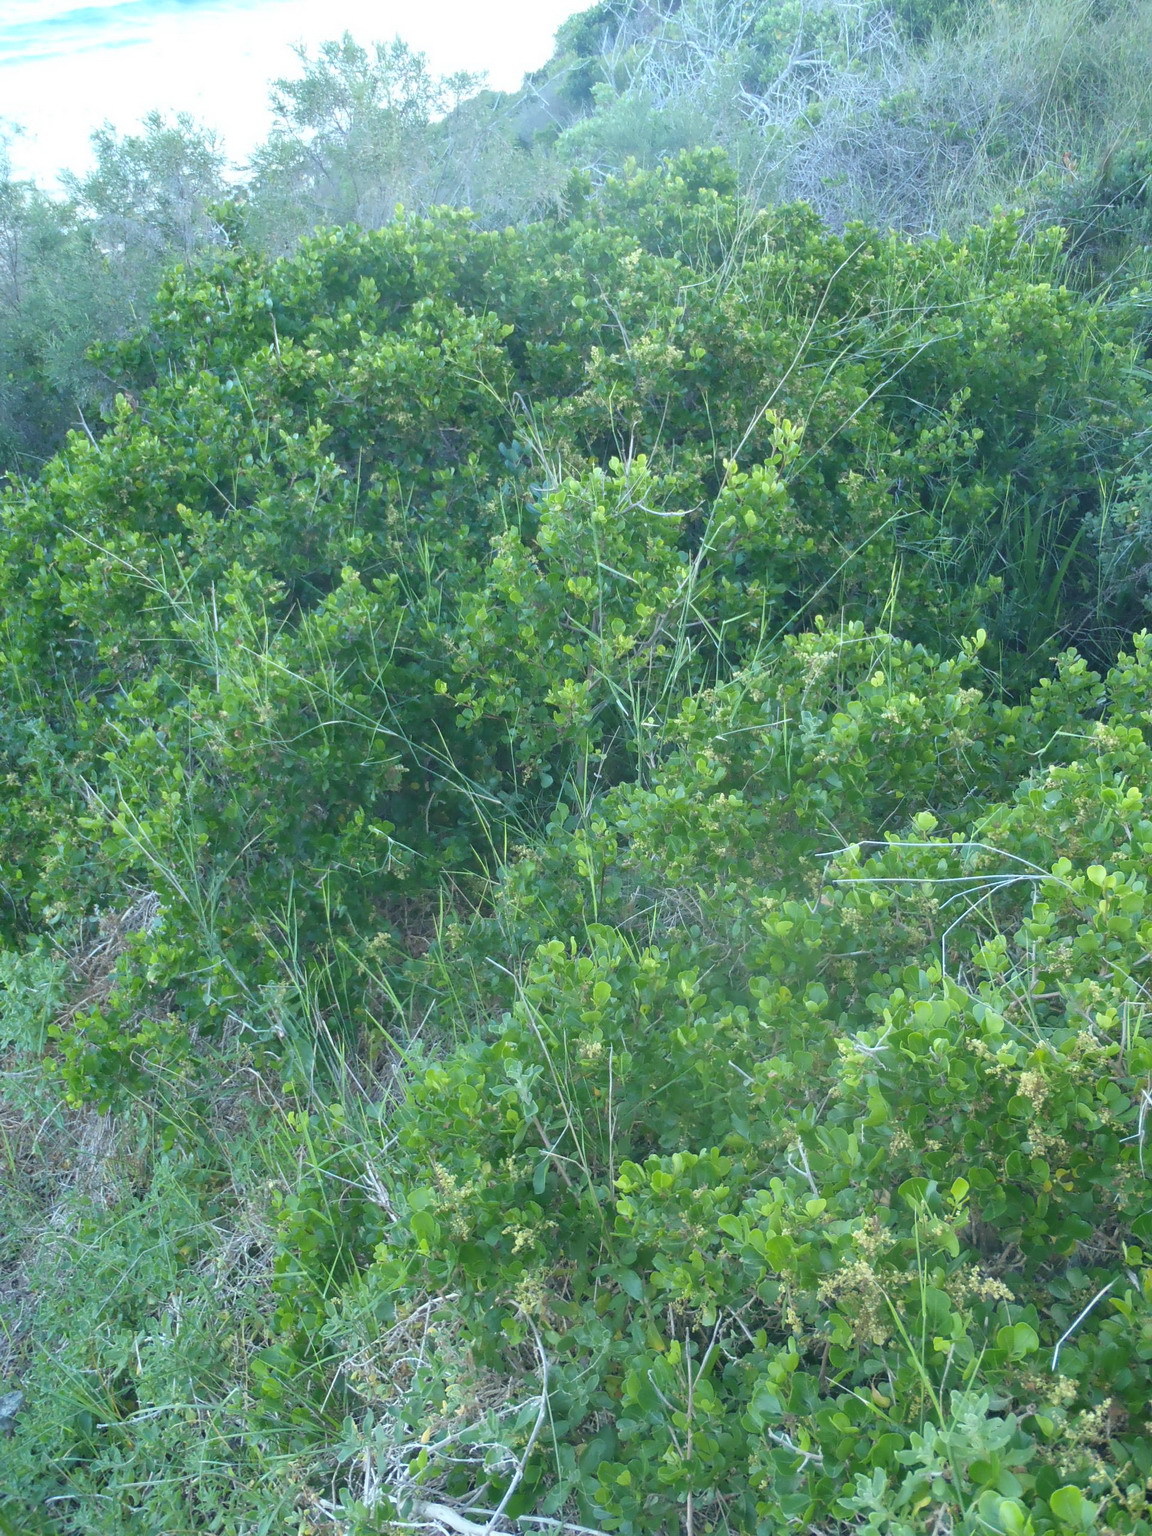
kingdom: Plantae
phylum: Tracheophyta
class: Magnoliopsida
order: Sapindales
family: Anacardiaceae
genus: Searsia
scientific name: Searsia glauca
